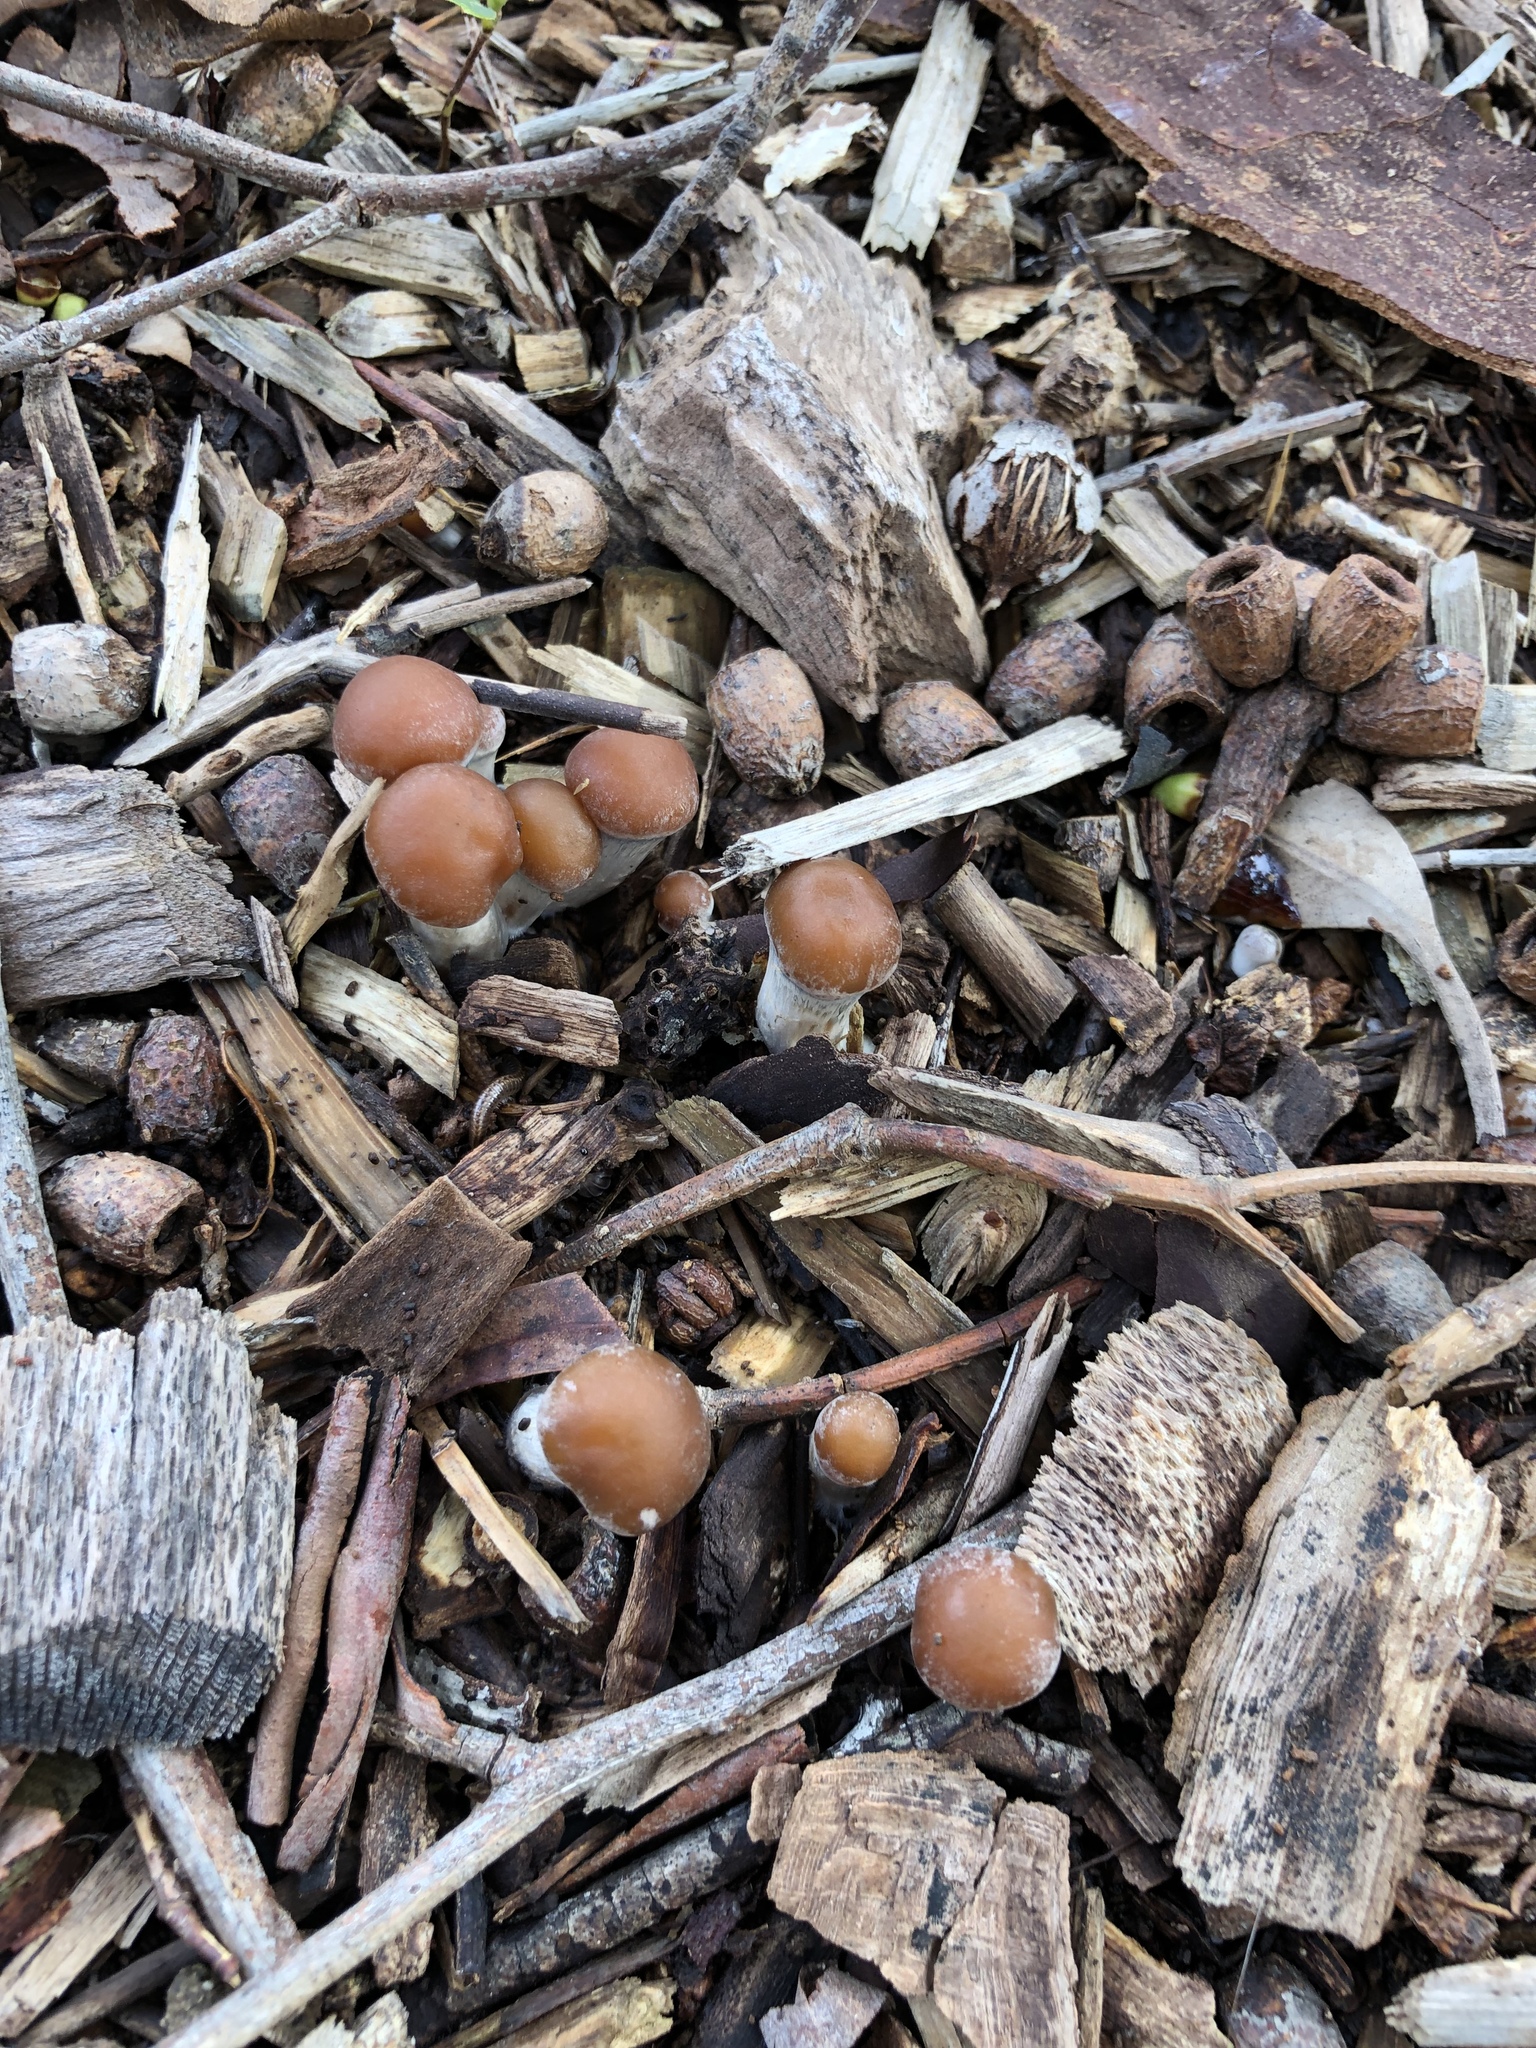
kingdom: Fungi
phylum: Basidiomycota
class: Agaricomycetes
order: Agaricales
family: Hymenogastraceae
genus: Psilocybe
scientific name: Psilocybe subaeruginosa
